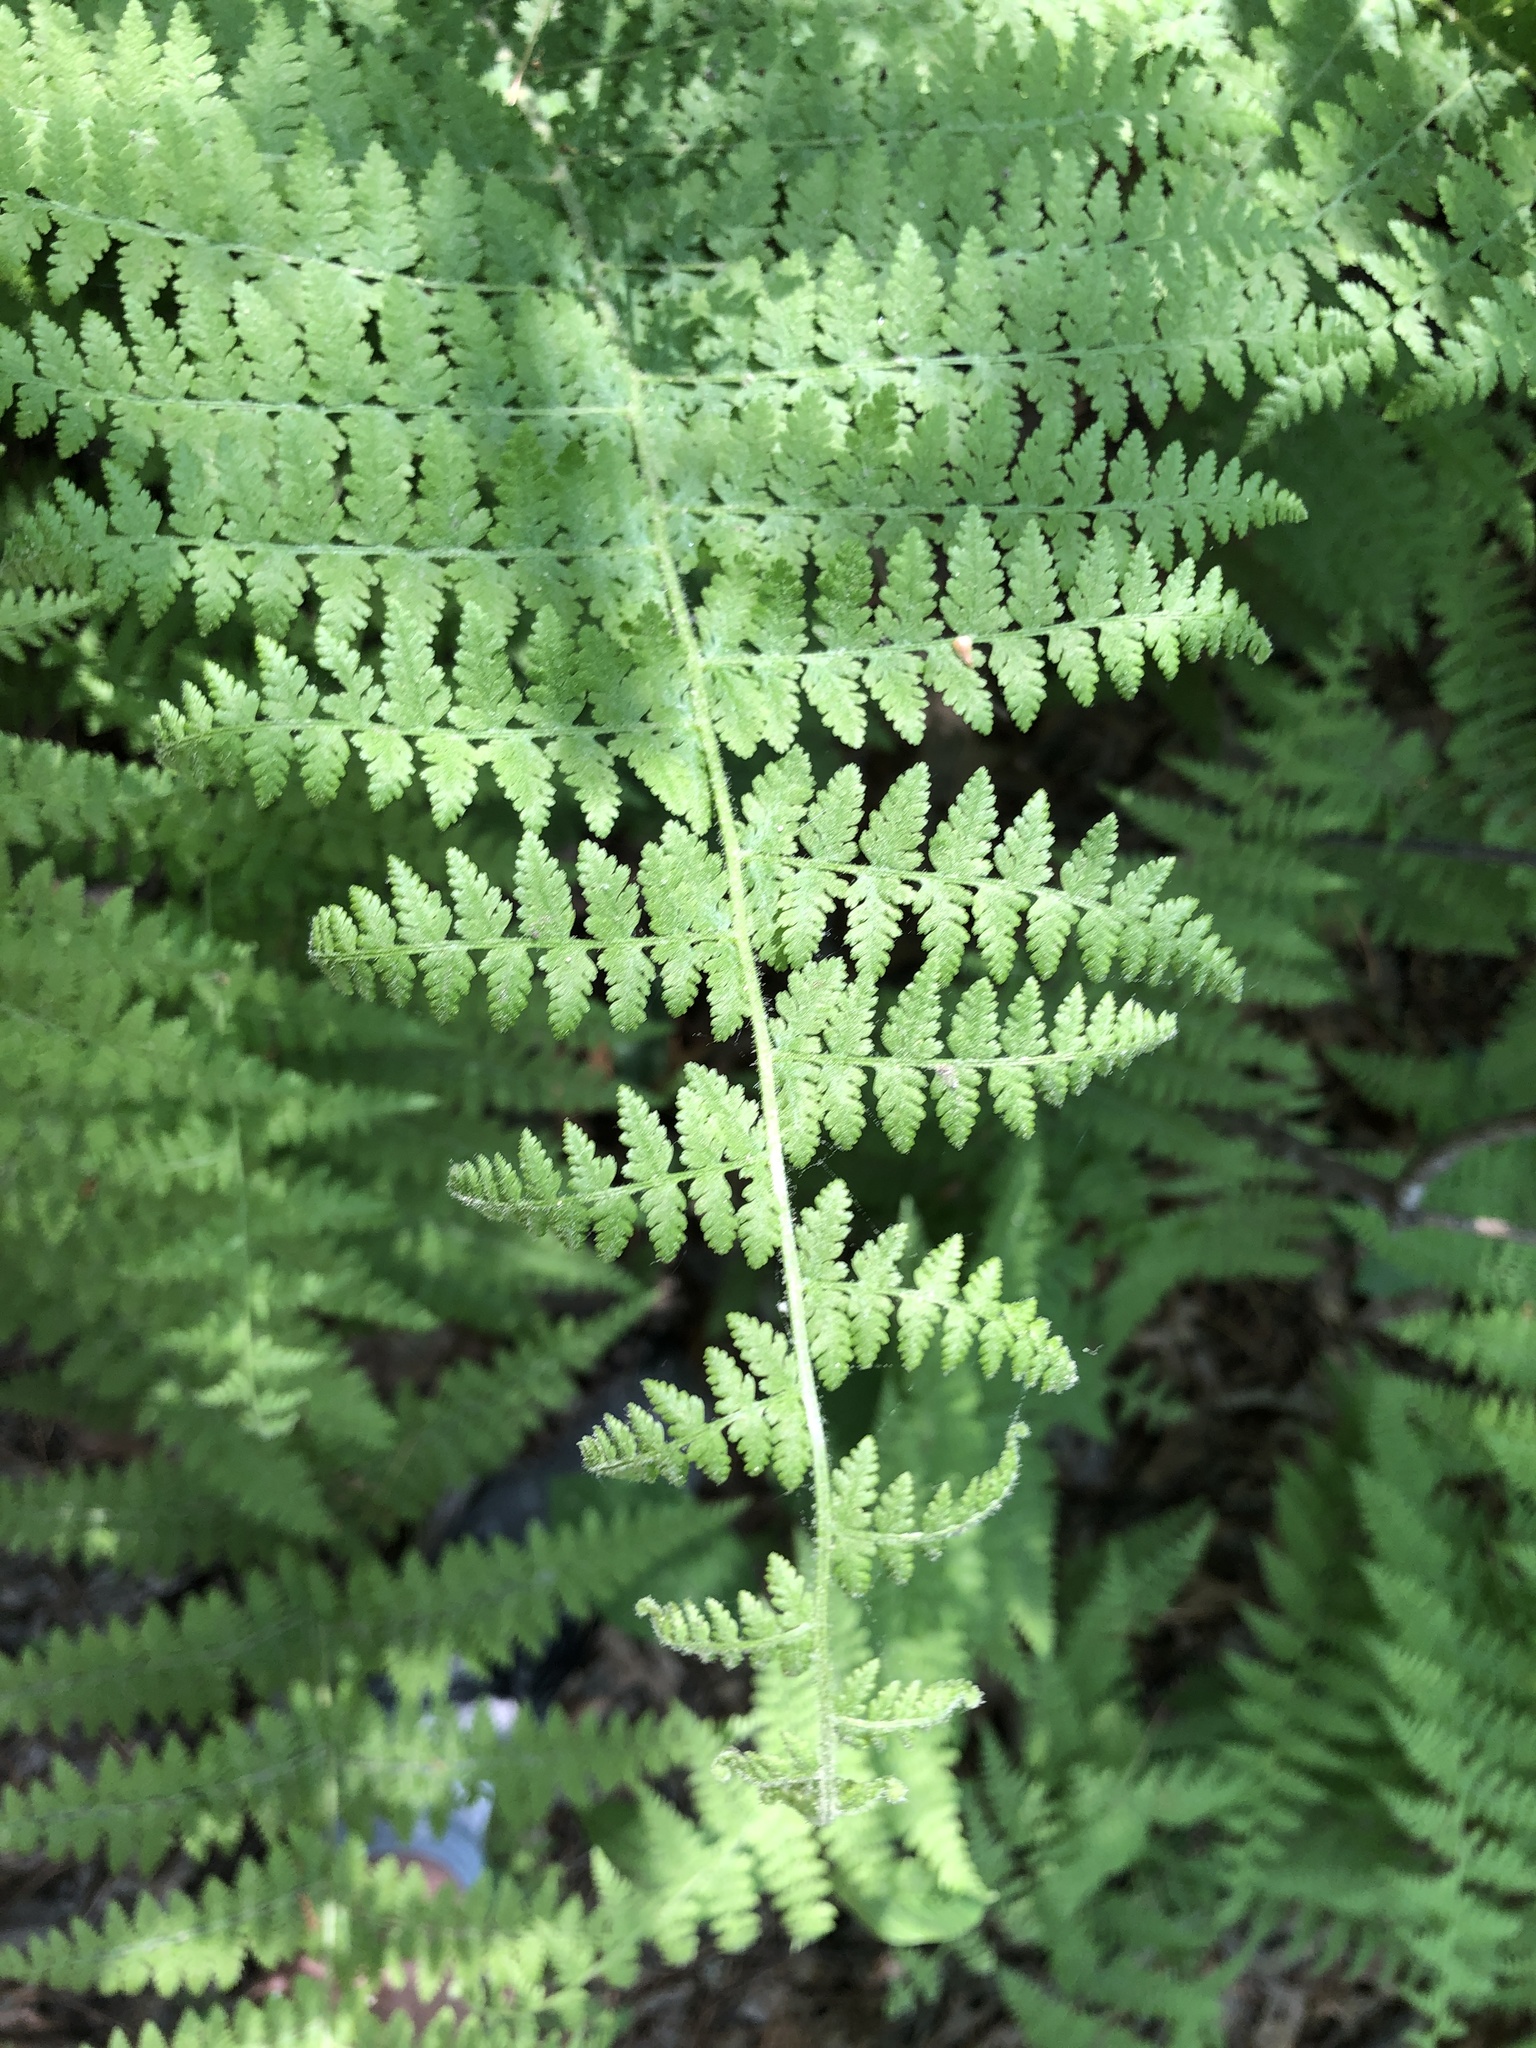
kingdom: Plantae
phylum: Tracheophyta
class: Polypodiopsida
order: Polypodiales
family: Dennstaedtiaceae
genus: Sitobolium
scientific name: Sitobolium punctilobum
